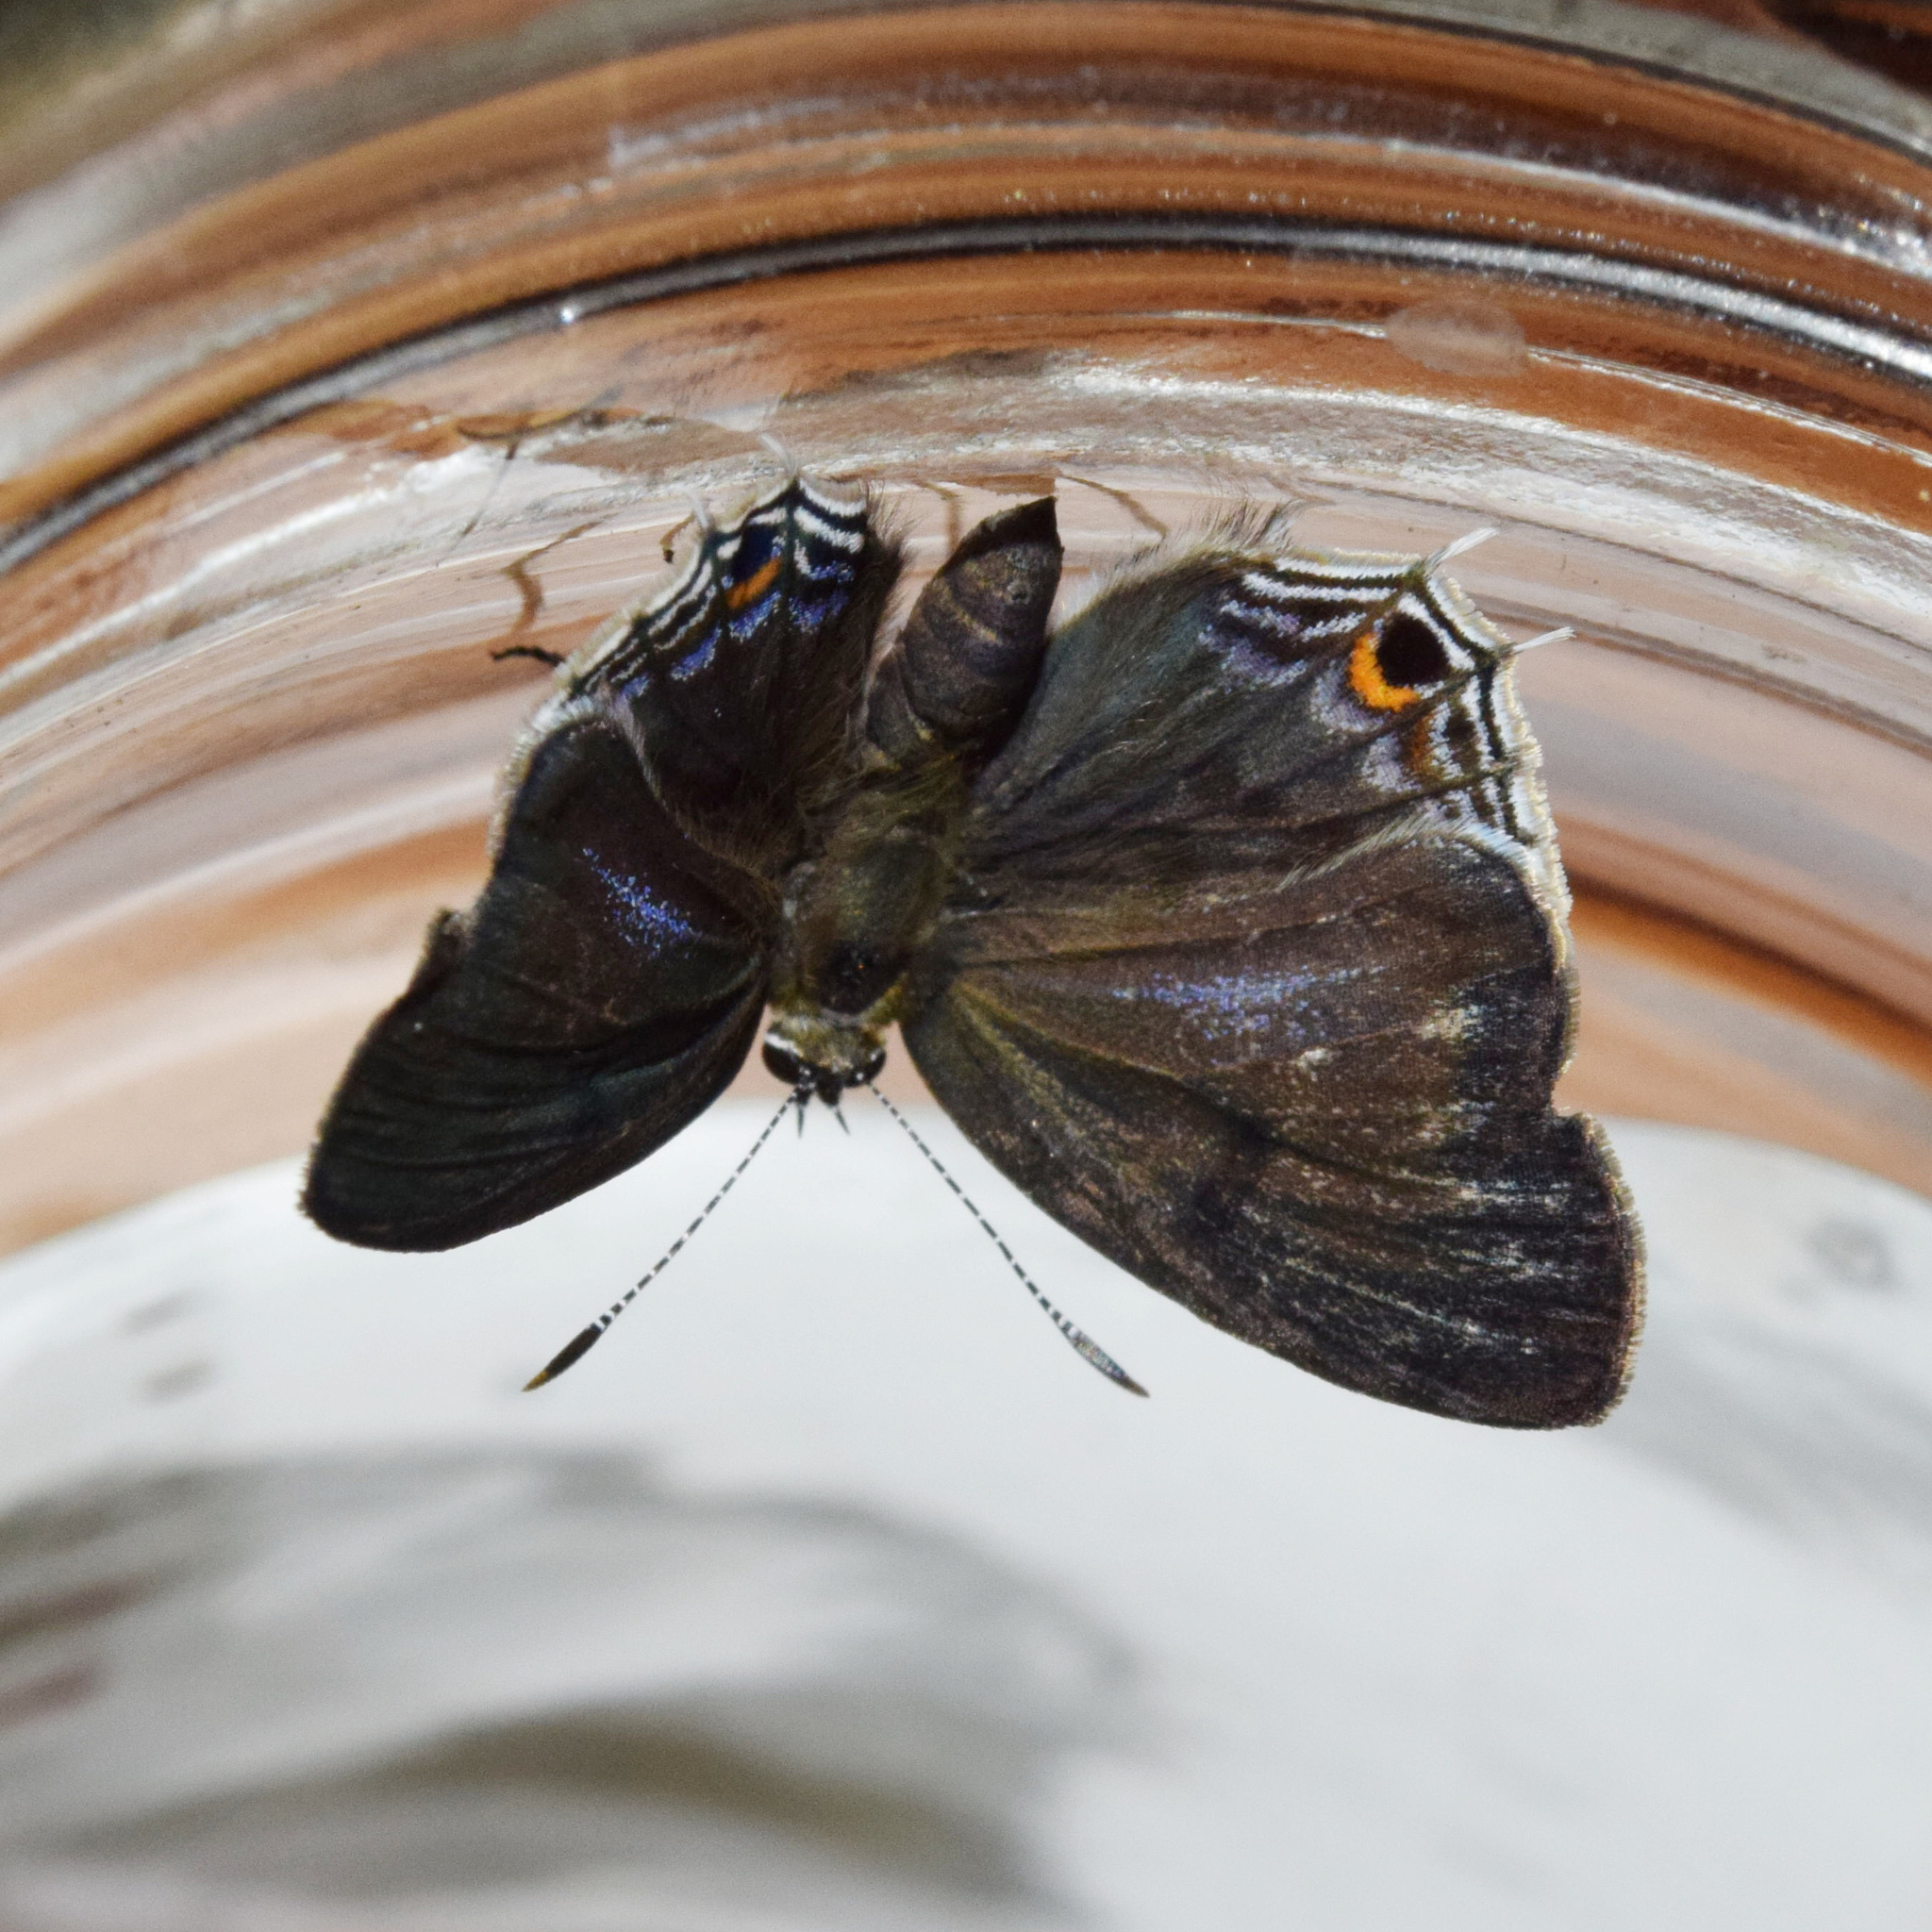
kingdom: Animalia
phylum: Arthropoda
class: Insecta
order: Lepidoptera
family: Lycaenidae
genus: Anthene
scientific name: Anthene lemnos
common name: Large ciliate blue
